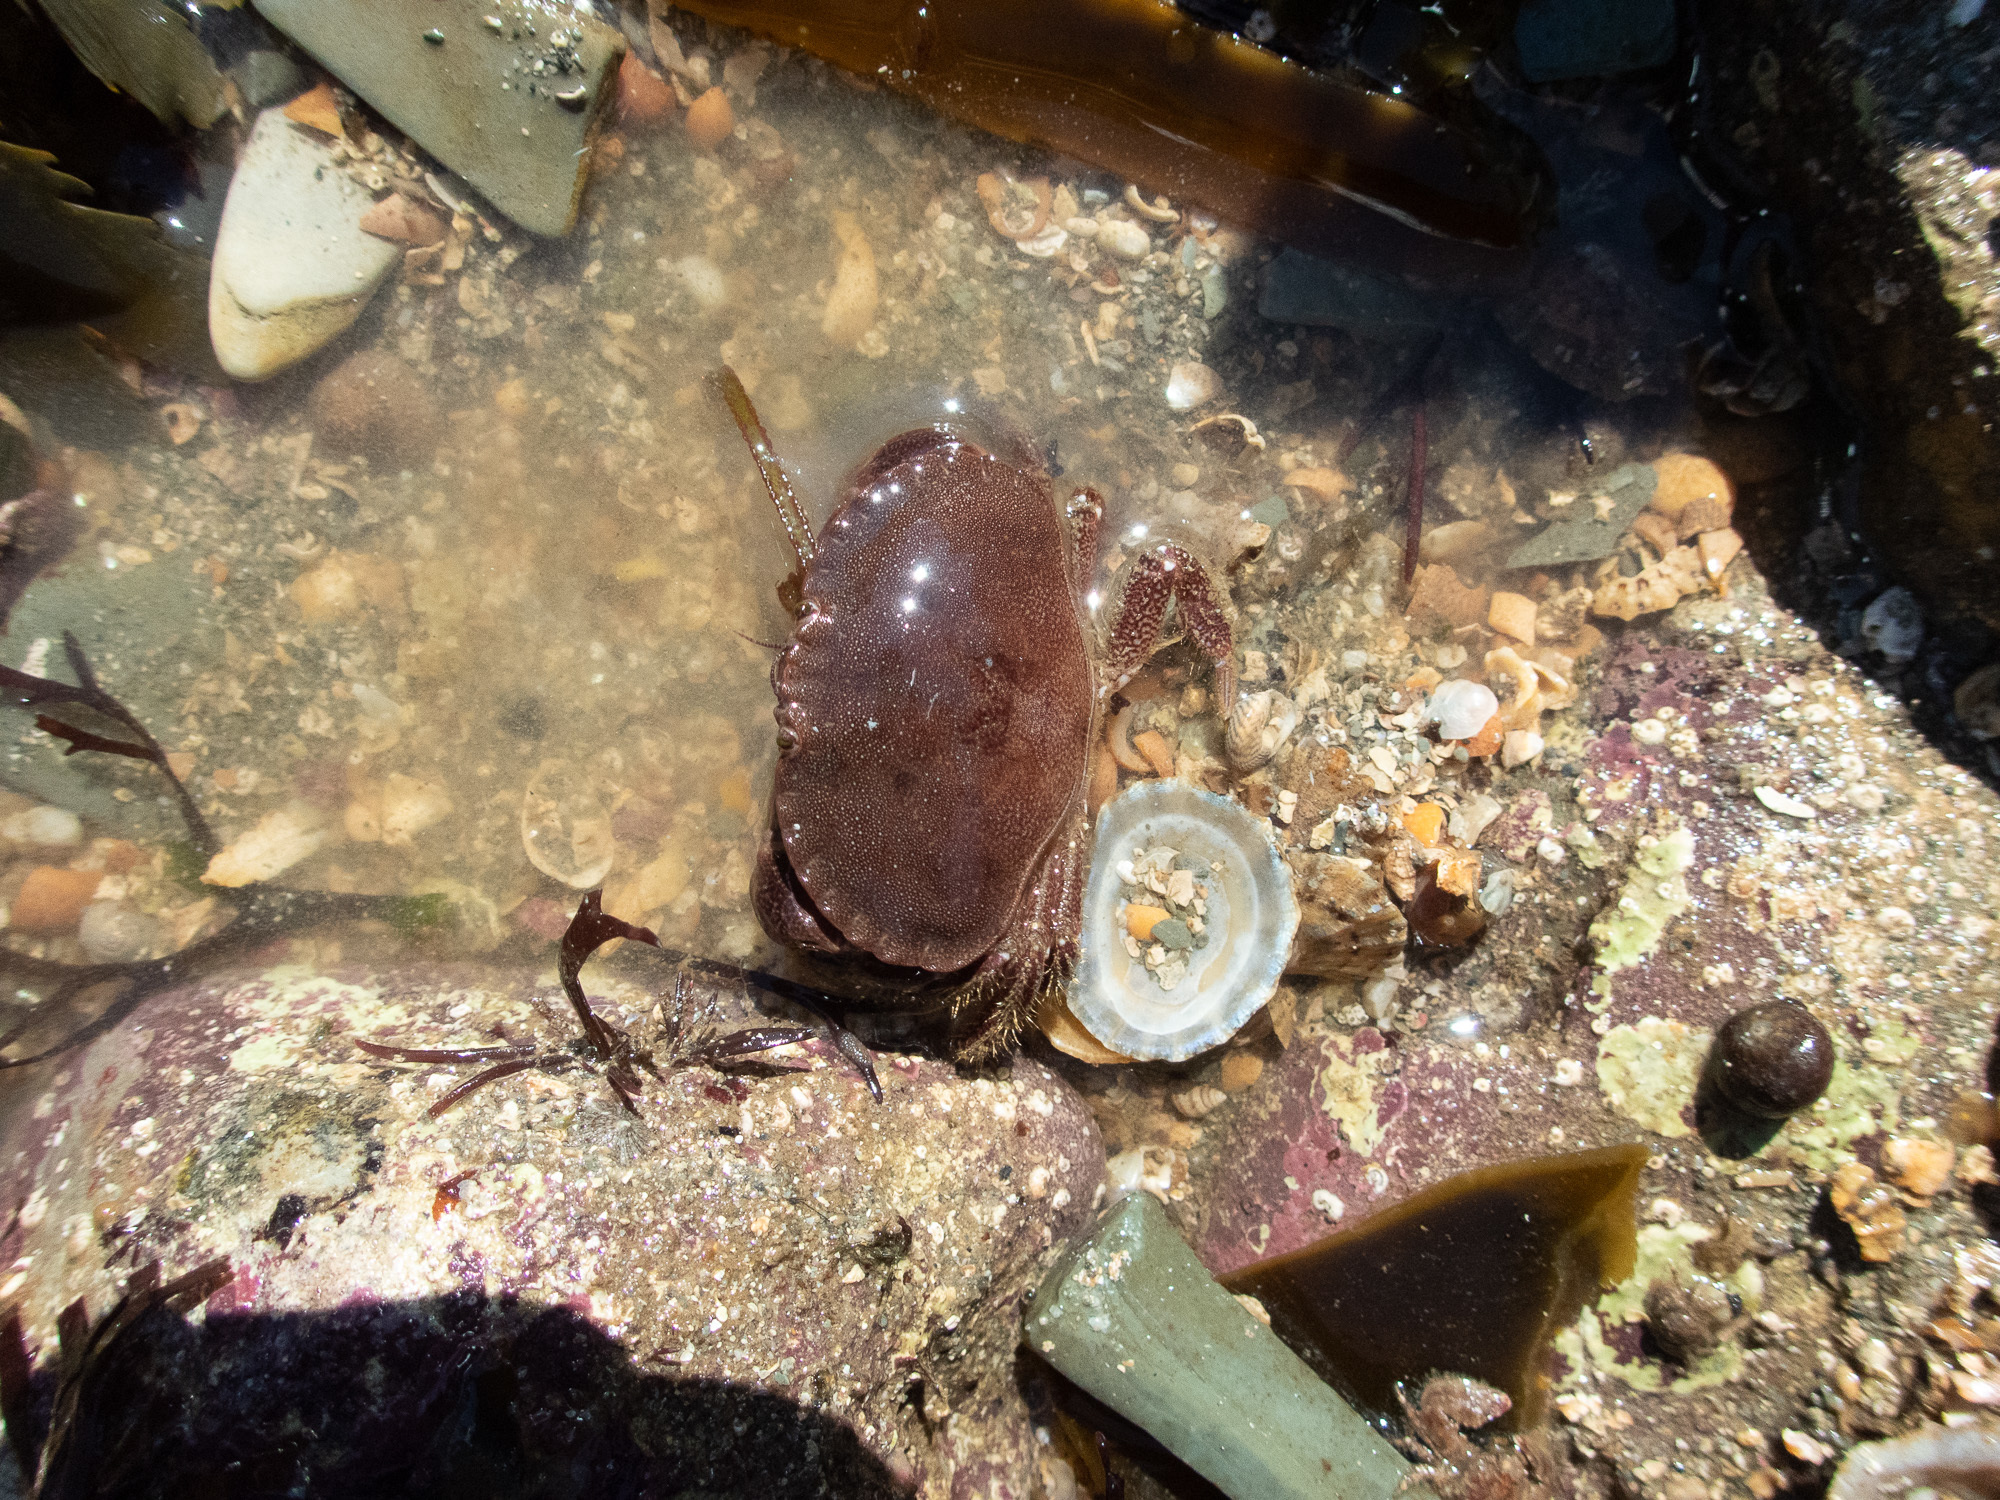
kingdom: Animalia
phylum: Arthropoda
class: Malacostraca
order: Decapoda
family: Cancridae
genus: Cancer
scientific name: Cancer pagurus
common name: Edible crab
